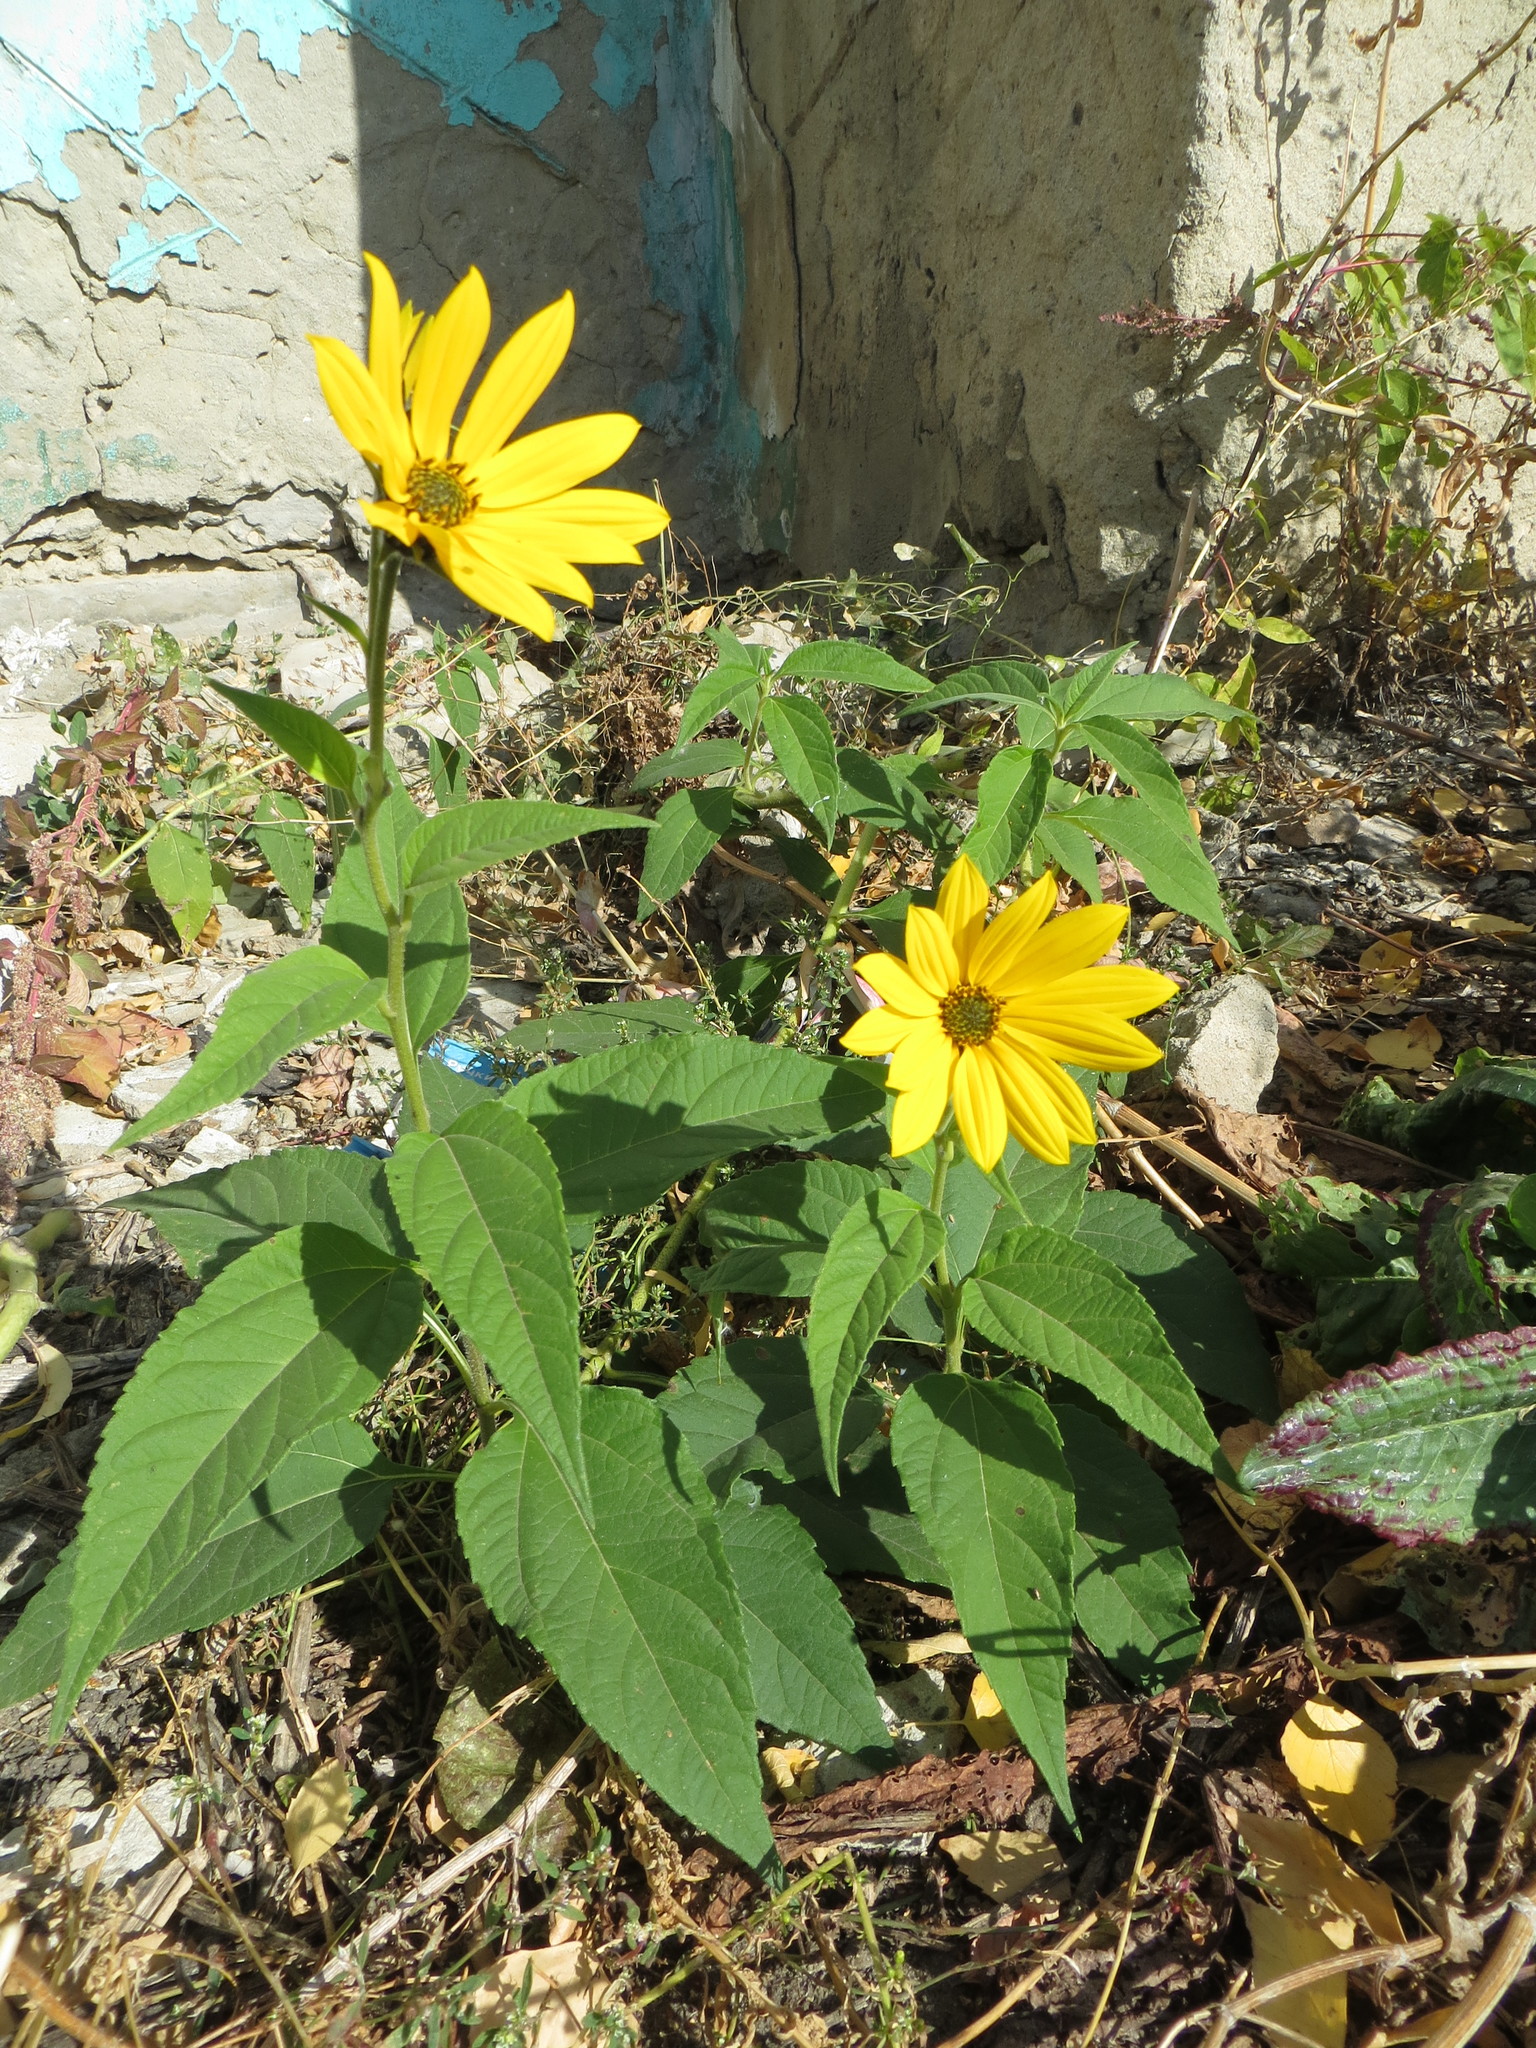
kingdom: Plantae
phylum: Tracheophyta
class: Magnoliopsida
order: Asterales
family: Asteraceae
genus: Helianthus
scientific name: Helianthus tuberosus
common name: Jerusalem artichoke
